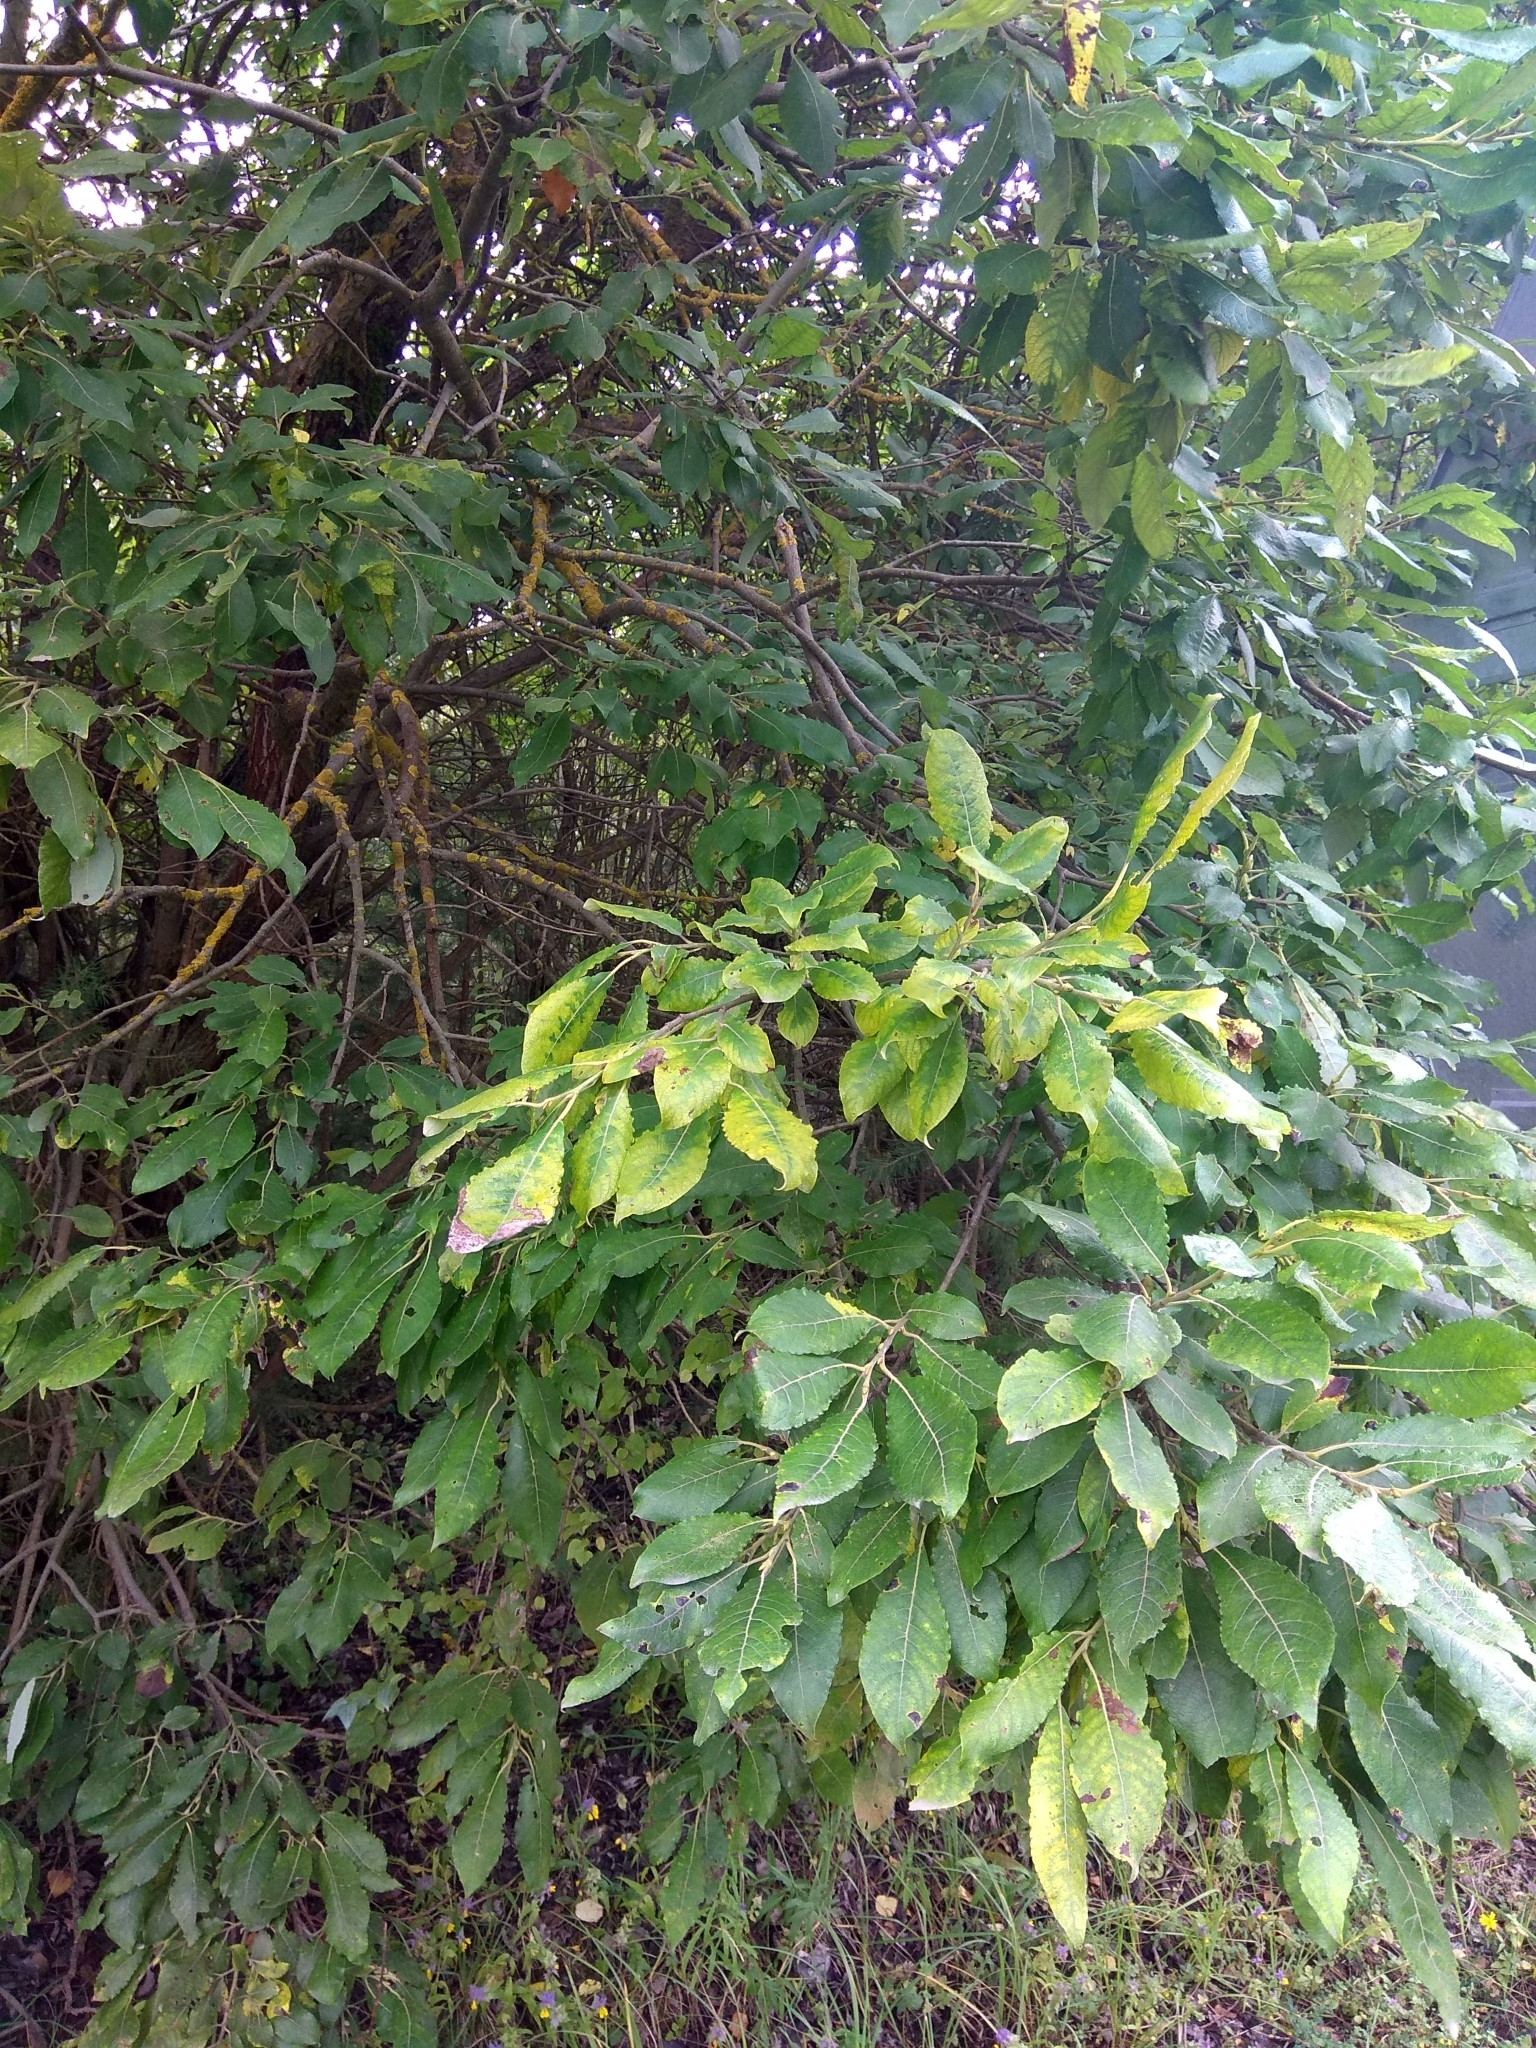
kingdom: Plantae
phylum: Tracheophyta
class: Magnoliopsida
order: Malpighiales
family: Salicaceae
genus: Salix
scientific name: Salix caprea
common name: Goat willow
